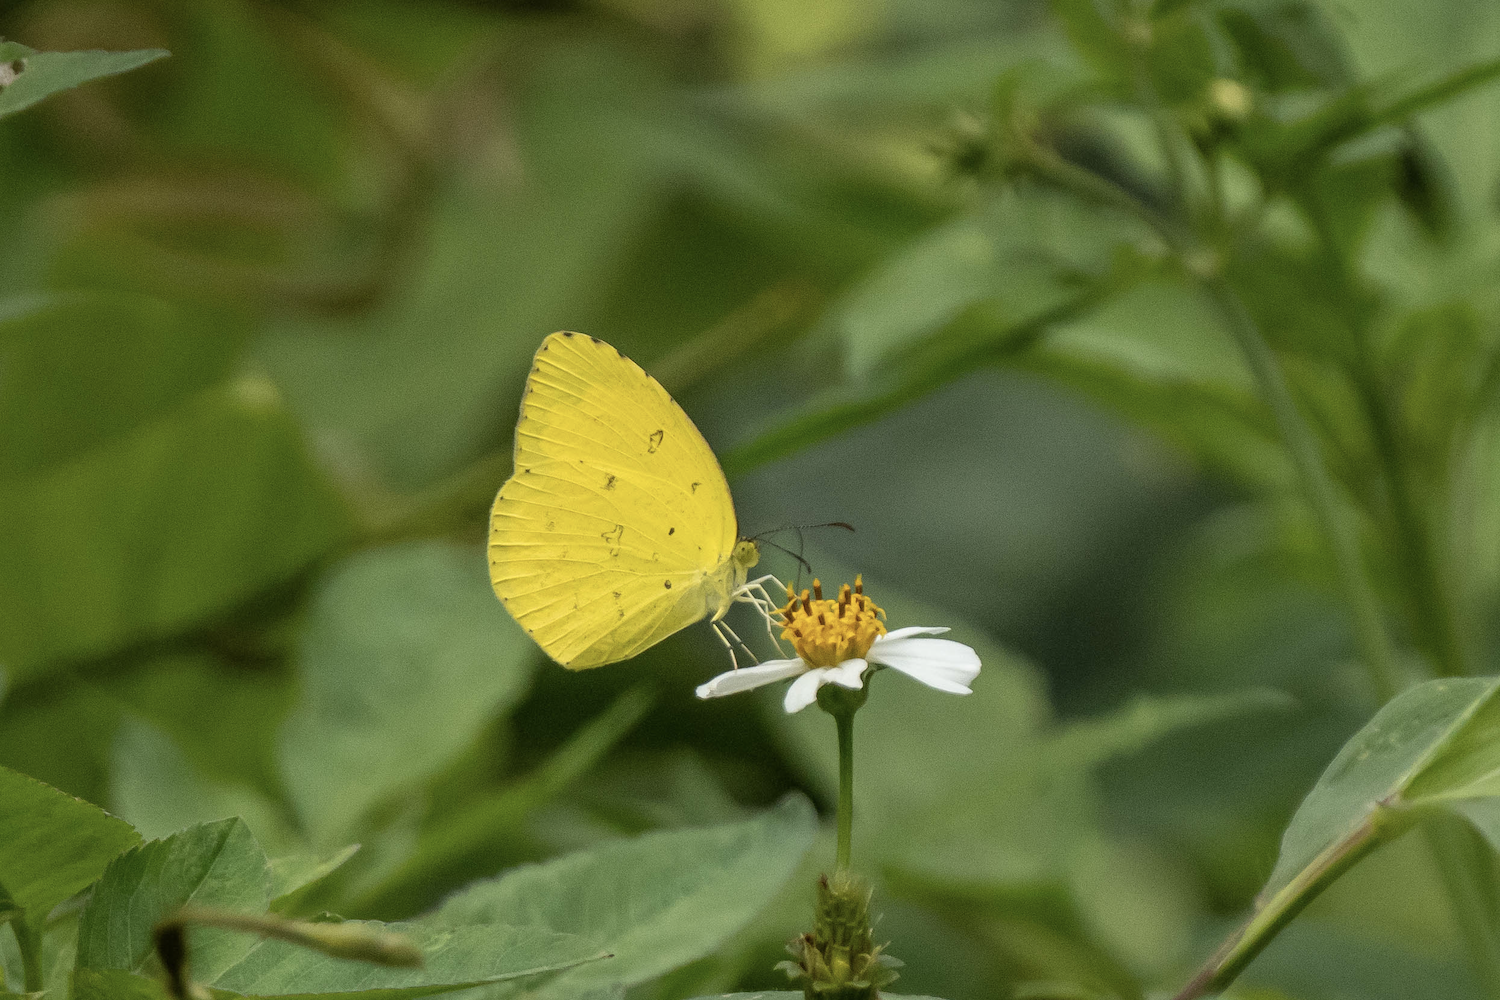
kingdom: Animalia
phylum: Arthropoda
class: Insecta
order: Lepidoptera
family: Pieridae
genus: Eurema
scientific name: Eurema hecabe
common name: Pale grass yellow
